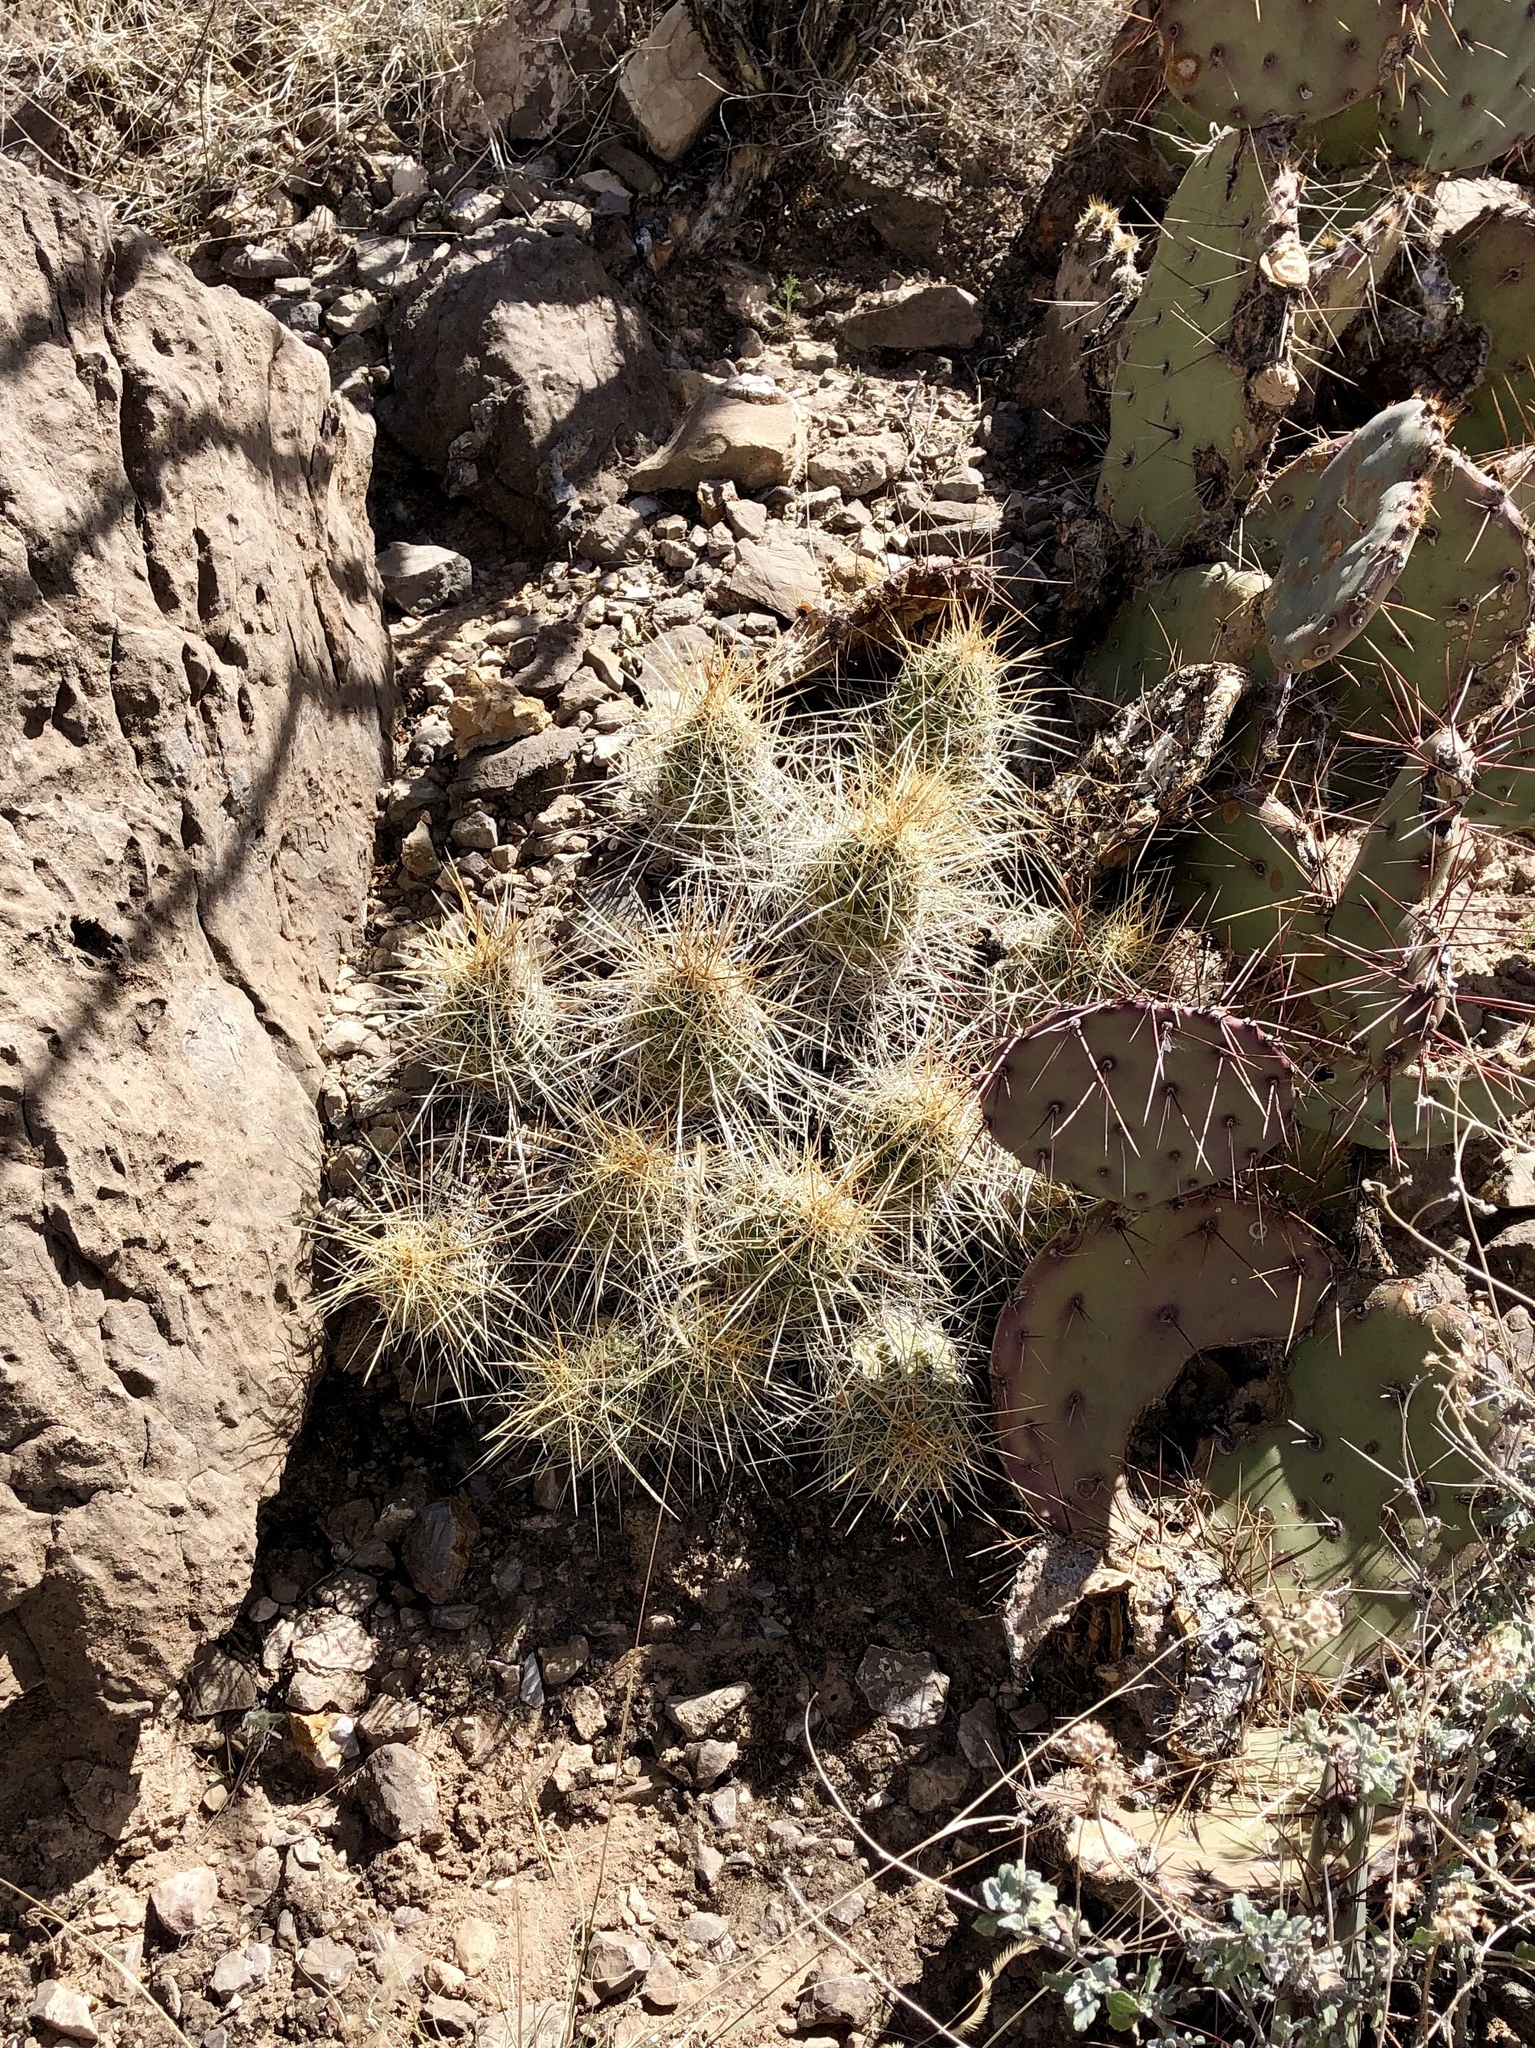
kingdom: Plantae
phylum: Tracheophyta
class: Magnoliopsida
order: Caryophyllales
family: Cactaceae
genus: Echinocereus
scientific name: Echinocereus stramineus
